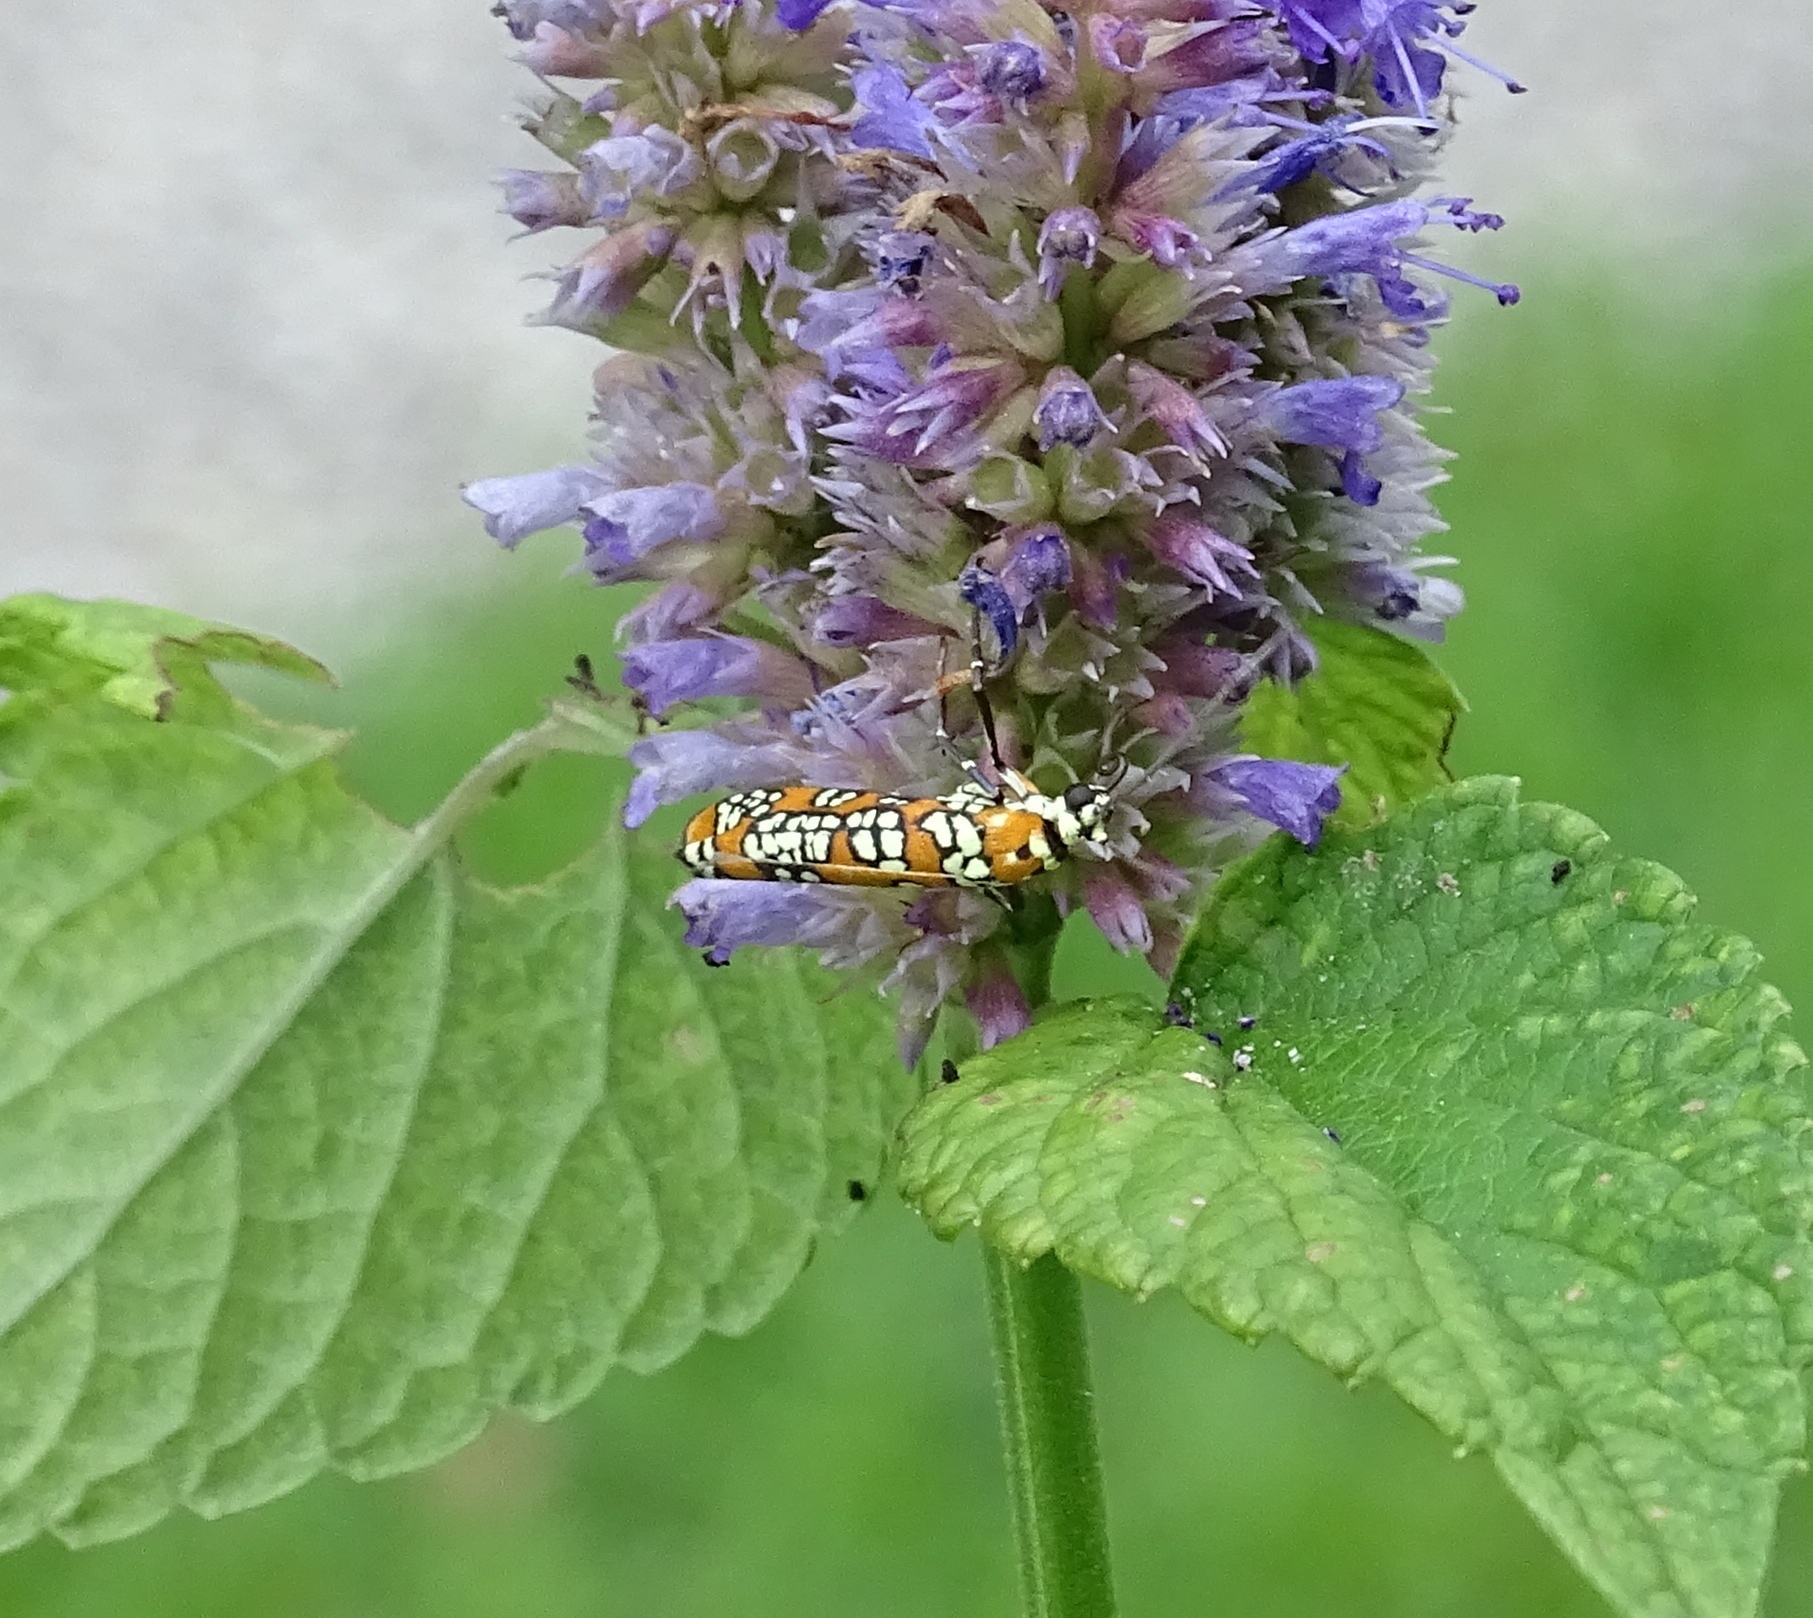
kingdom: Animalia
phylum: Arthropoda
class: Insecta
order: Lepidoptera
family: Attevidae
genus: Atteva
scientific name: Atteva punctella
